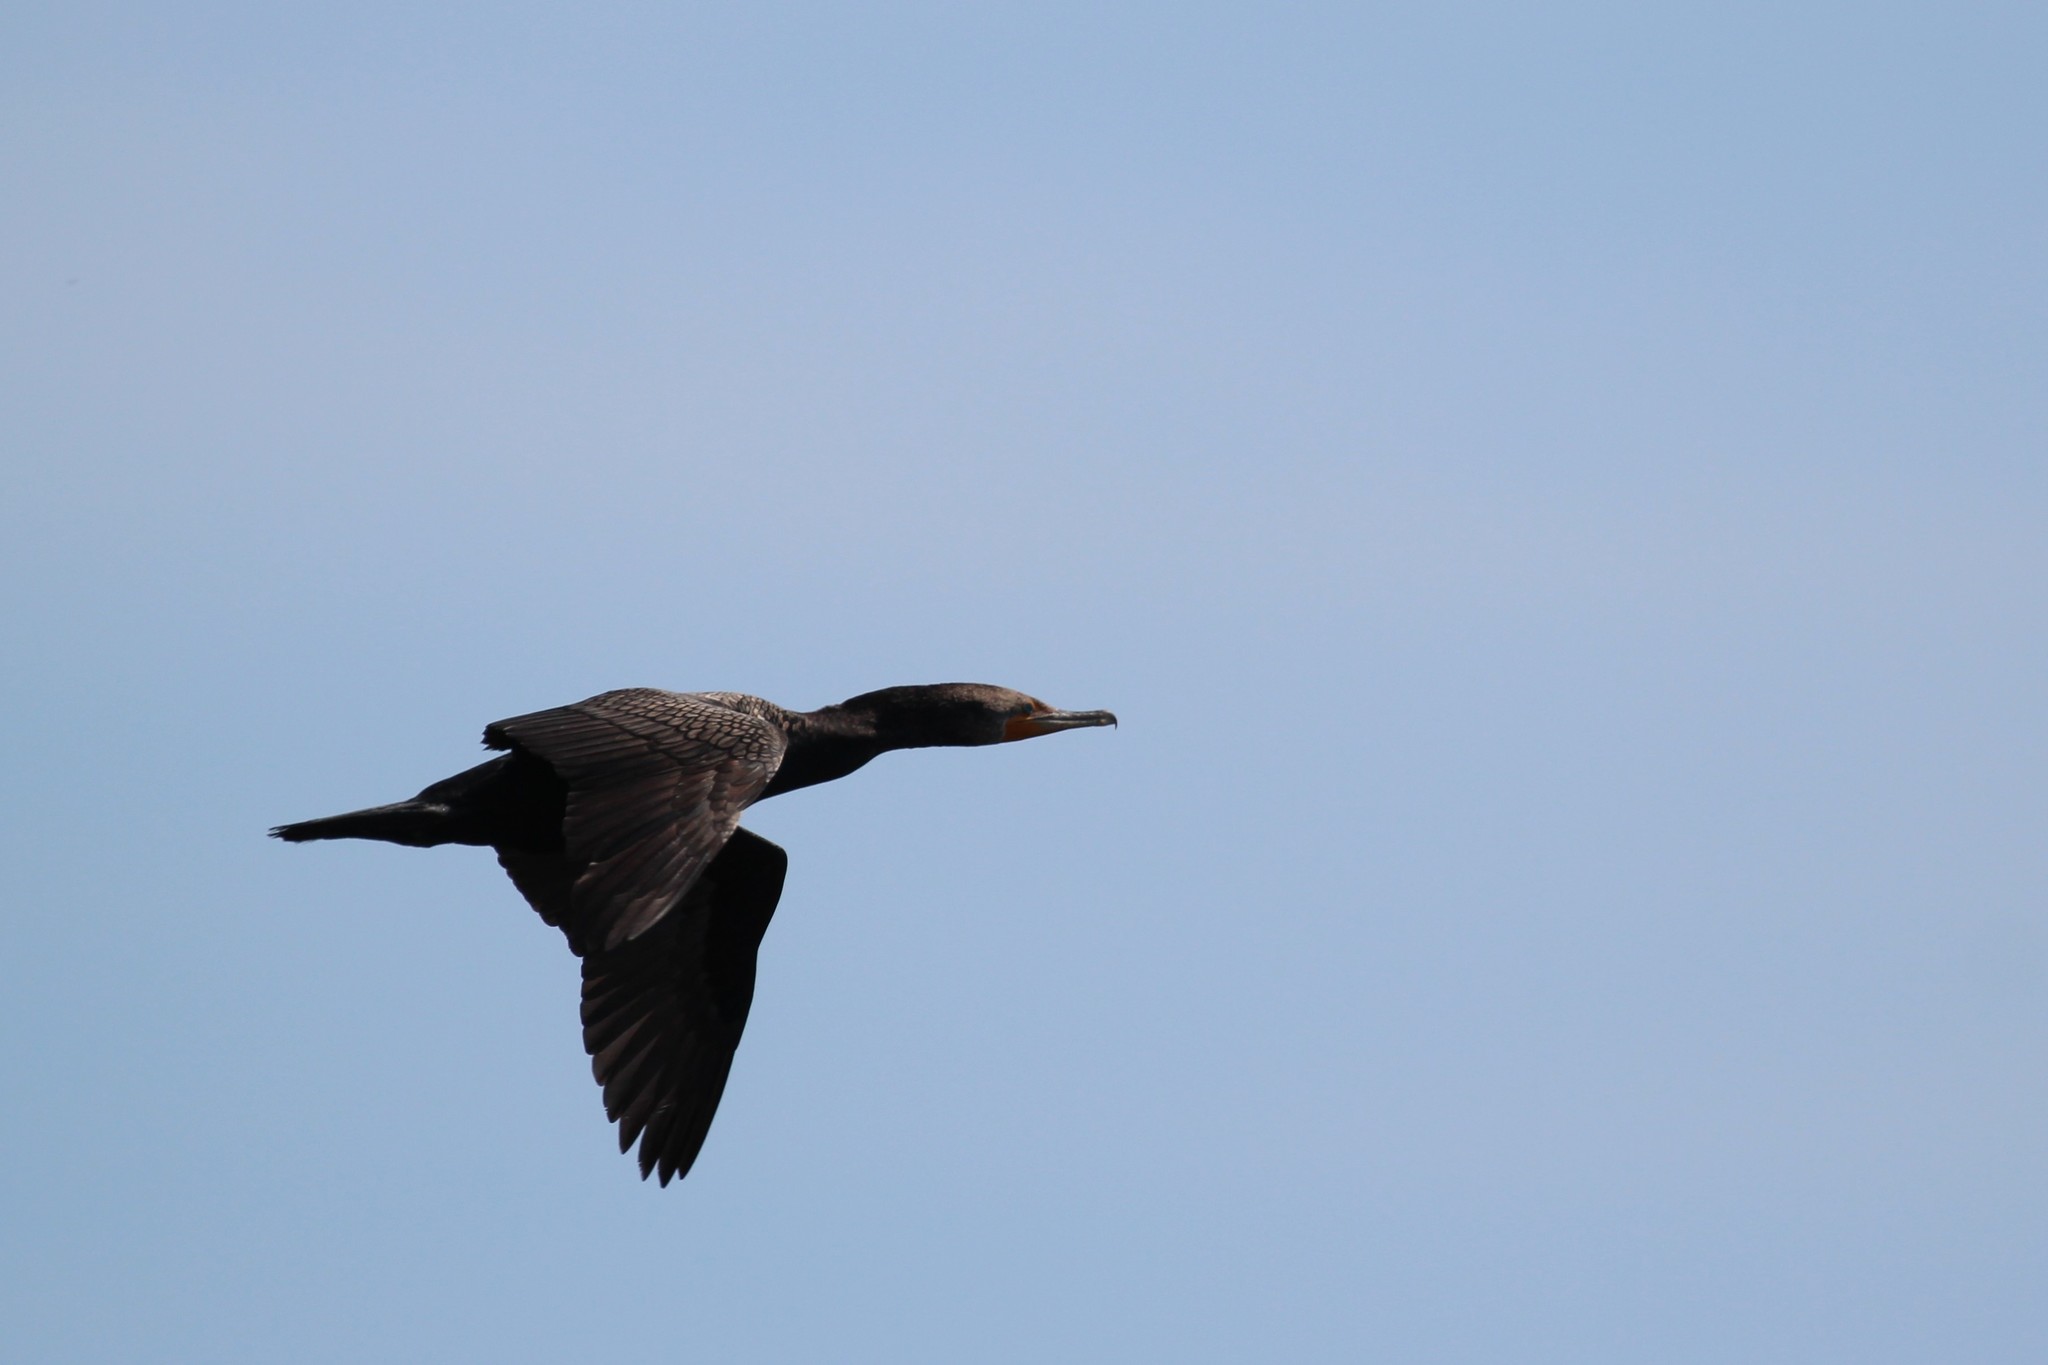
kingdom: Animalia
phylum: Chordata
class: Aves
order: Suliformes
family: Phalacrocoracidae
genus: Phalacrocorax
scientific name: Phalacrocorax auritus
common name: Double-crested cormorant
